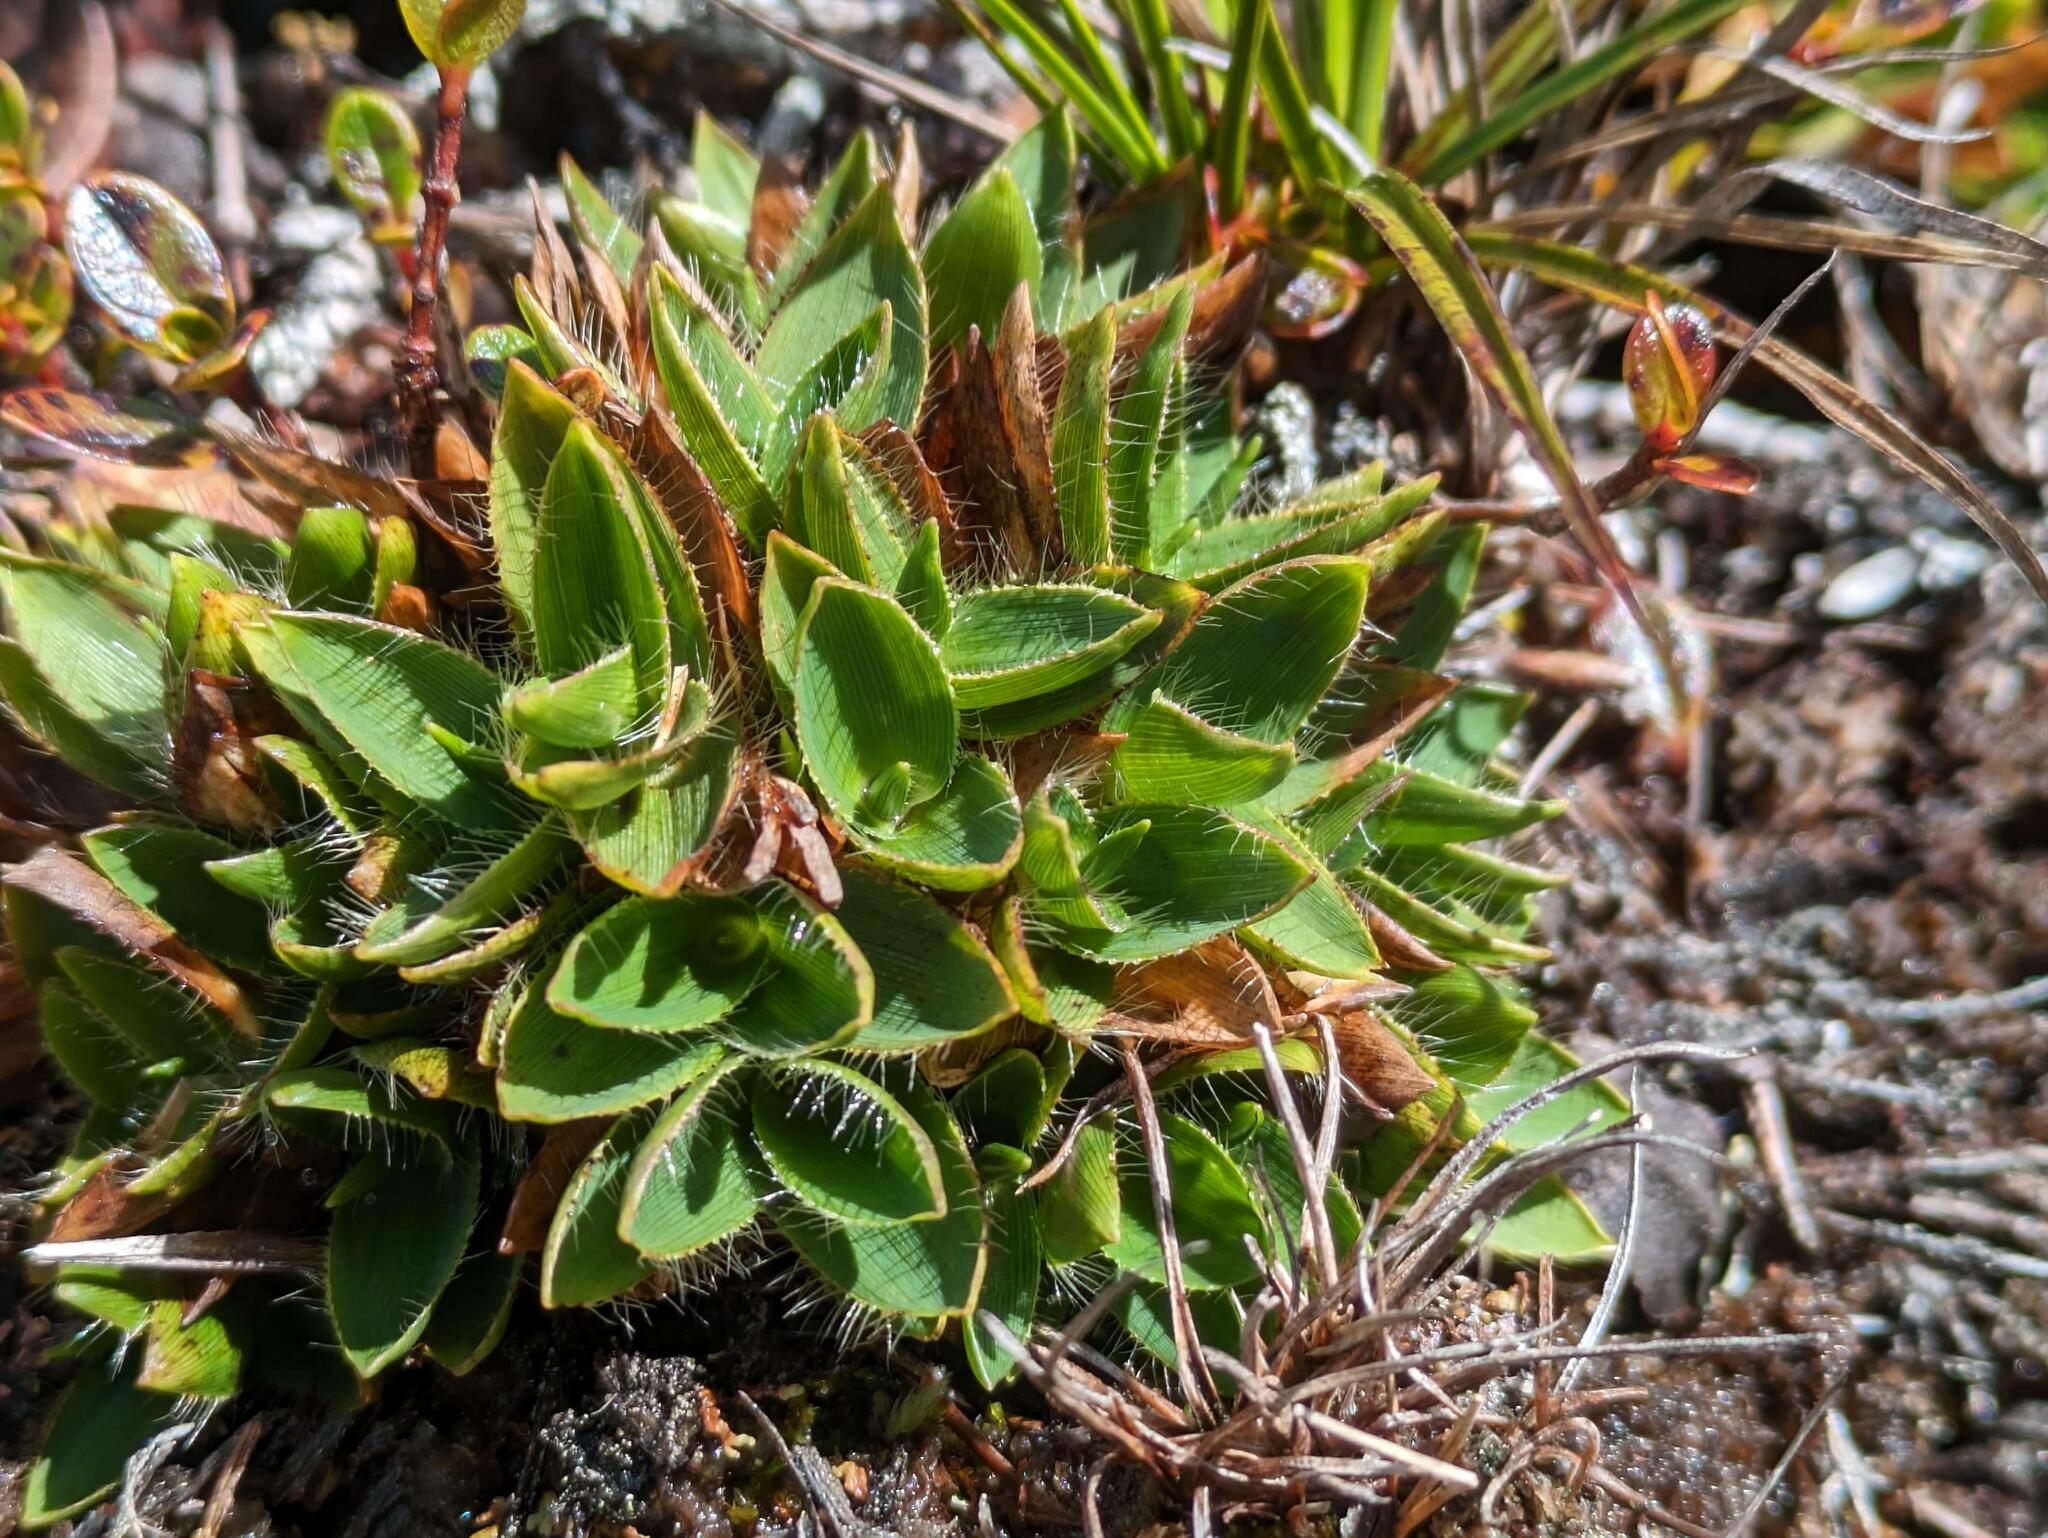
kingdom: Plantae
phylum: Tracheophyta
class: Liliopsida
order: Poales
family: Poaceae
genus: Dichanthelium
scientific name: Dichanthelium isachnoides
